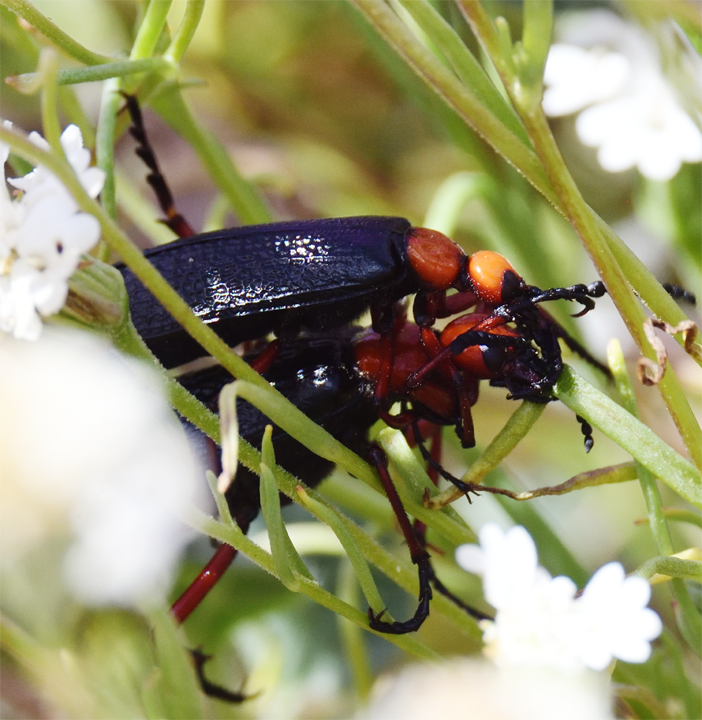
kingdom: Animalia
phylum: Arthropoda
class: Insecta
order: Coleoptera
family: Meloidae
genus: Lytta
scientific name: Lytta magister
